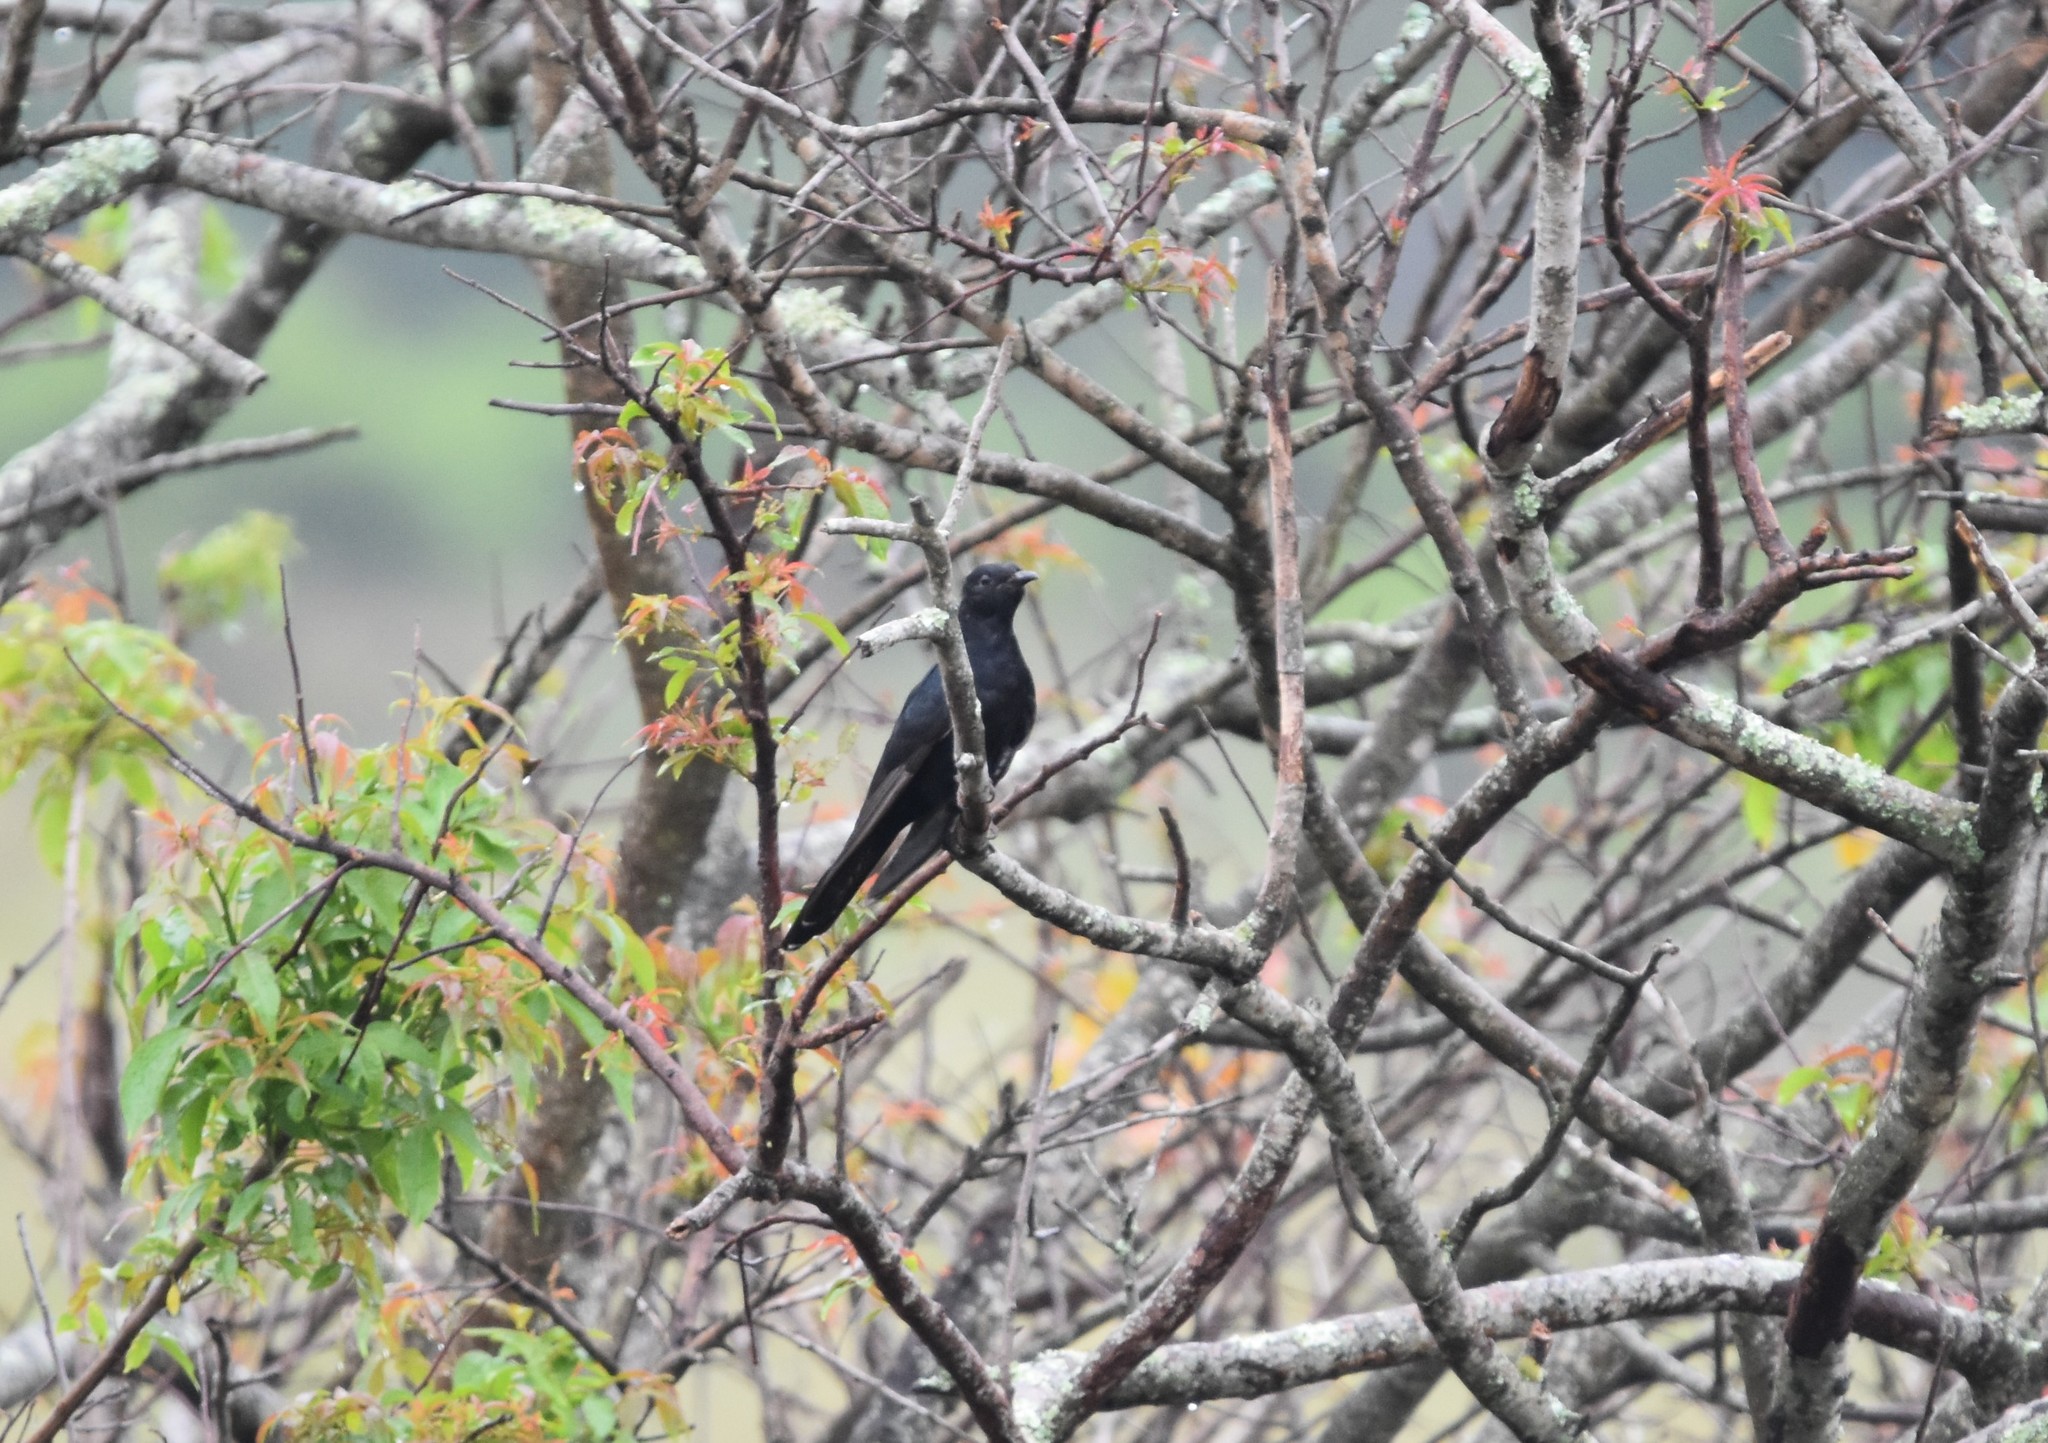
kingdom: Animalia
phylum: Chordata
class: Aves
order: Cuculiformes
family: Cuculidae
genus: Cuculus
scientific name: Cuculus clamosus
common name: Black cuckoo
